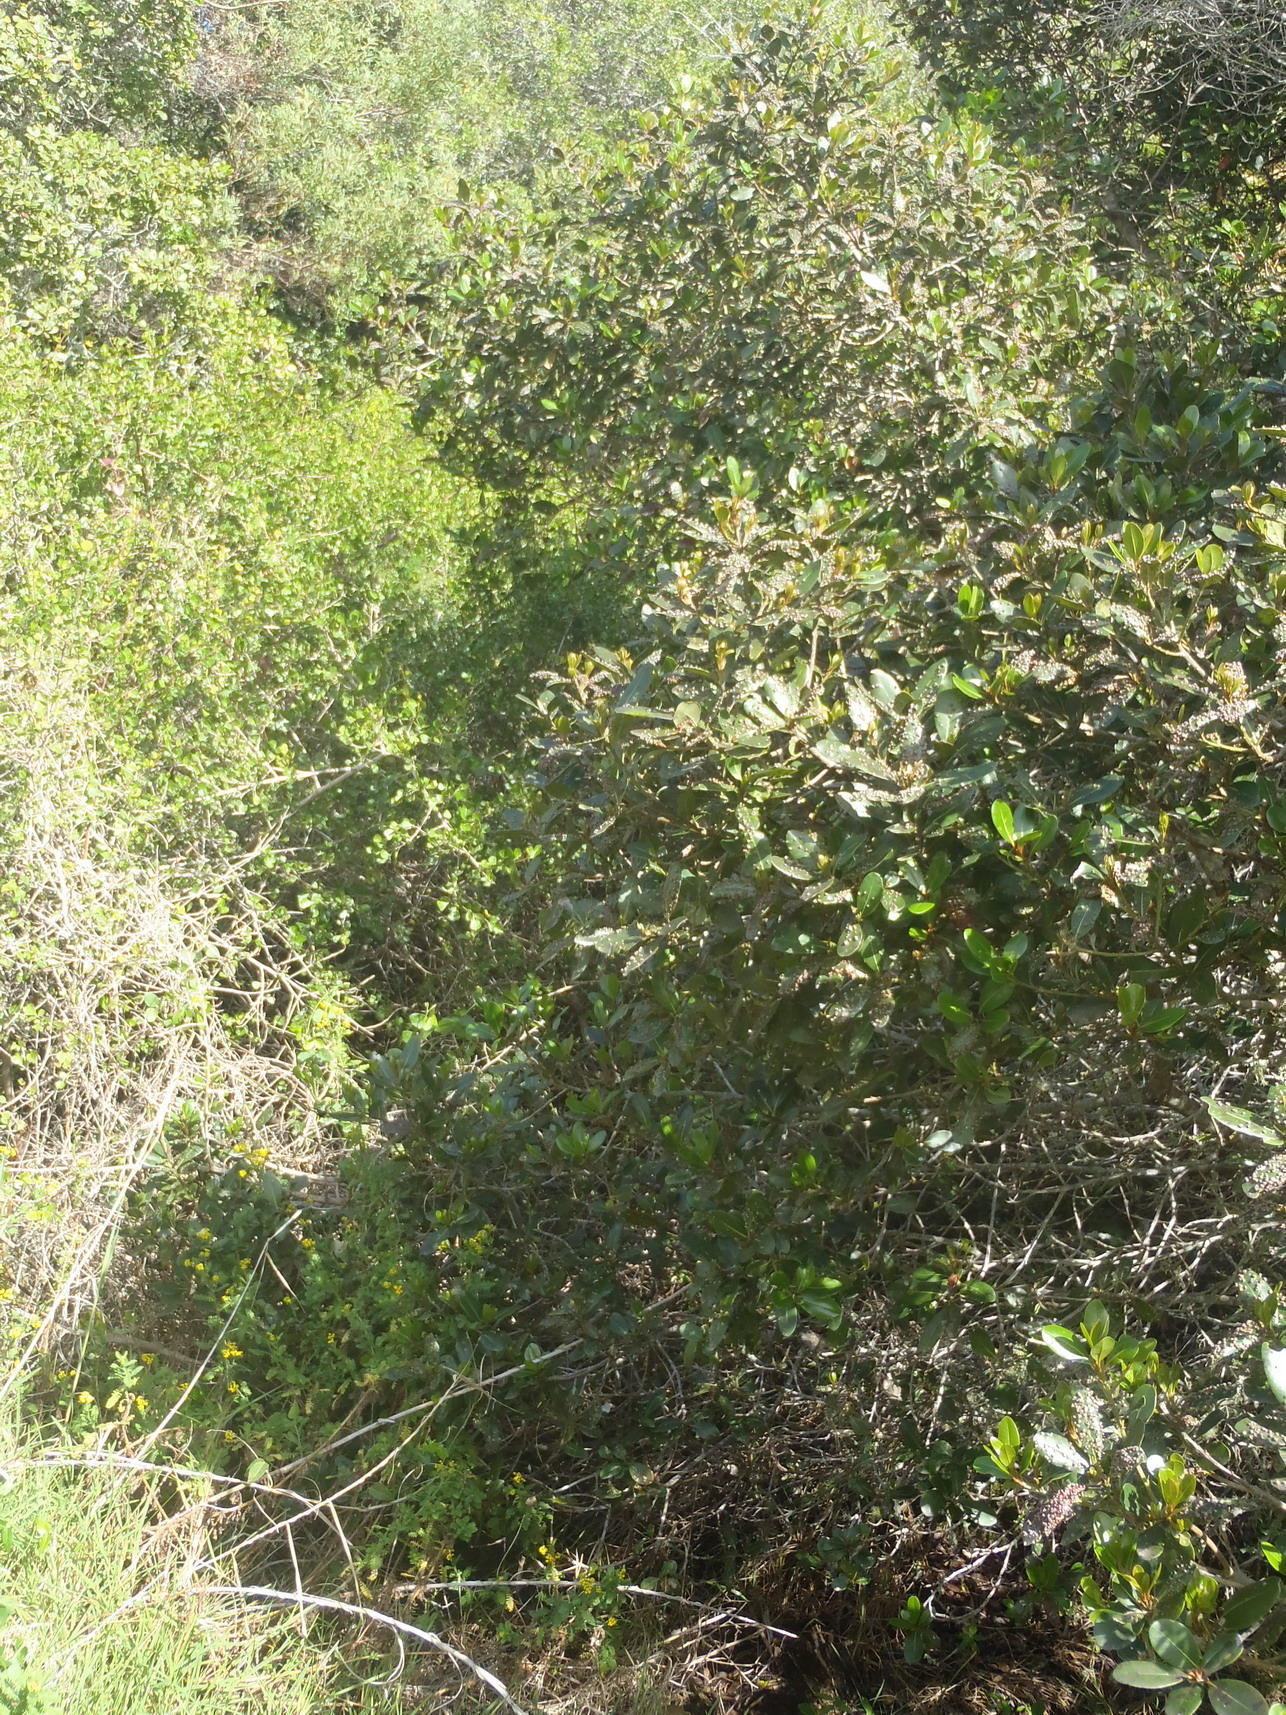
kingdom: Plantae
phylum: Tracheophyta
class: Magnoliopsida
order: Ericales
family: Sapotaceae
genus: Sideroxylon
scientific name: Sideroxylon inerme
